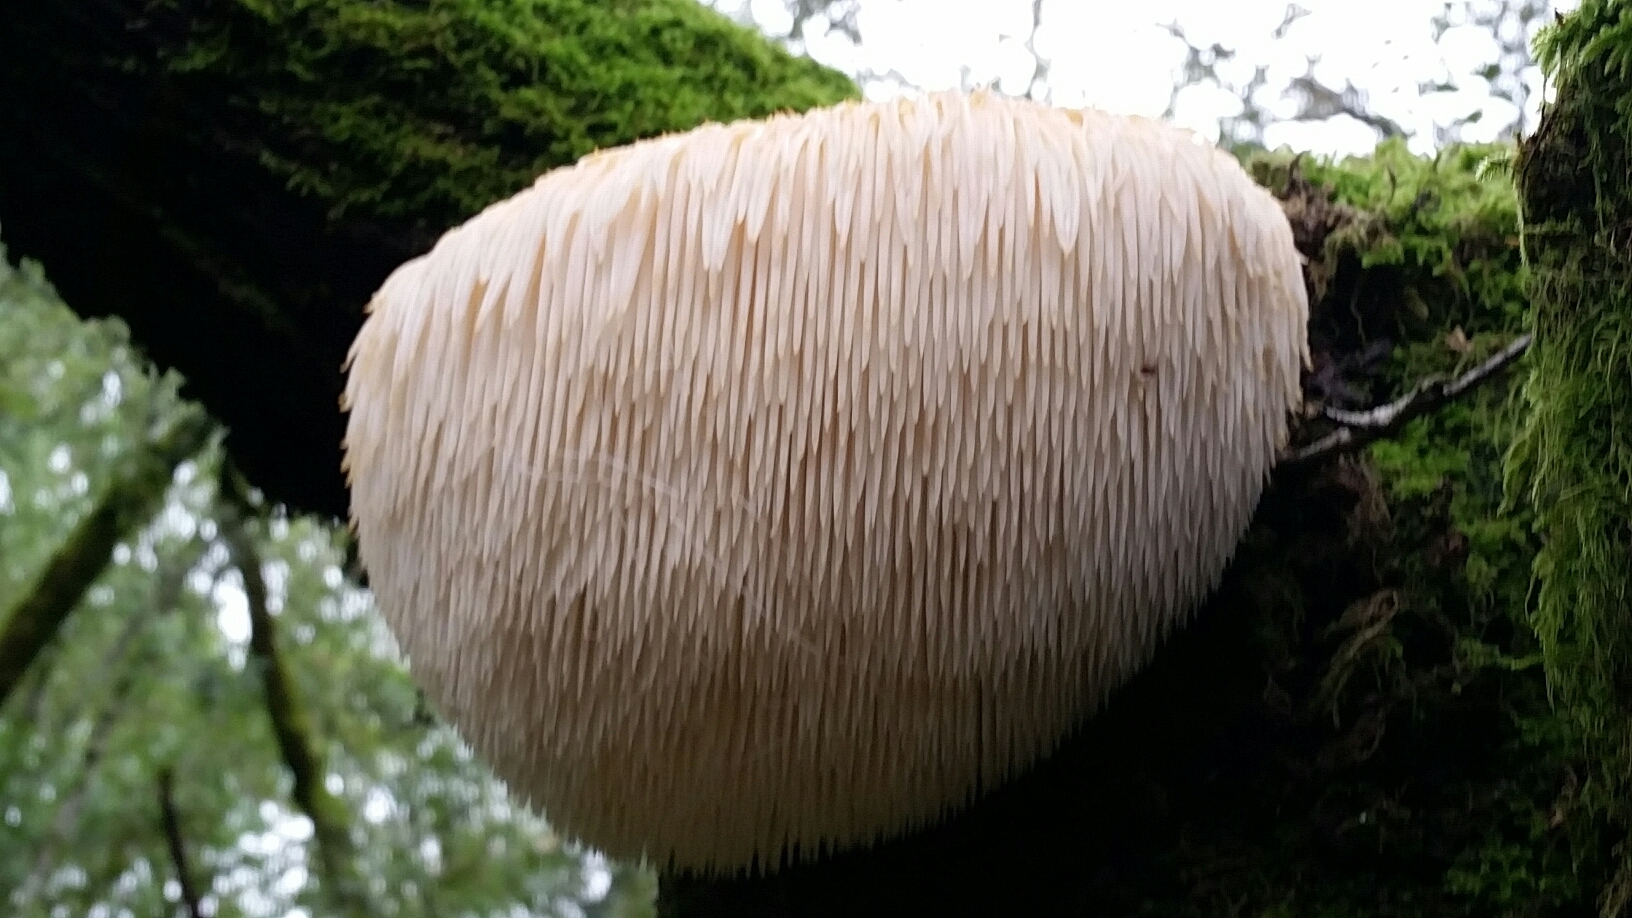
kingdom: Fungi
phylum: Basidiomycota
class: Agaricomycetes
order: Russulales
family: Hericiaceae
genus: Hericium
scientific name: Hericium erinaceus
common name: Bearded tooth
